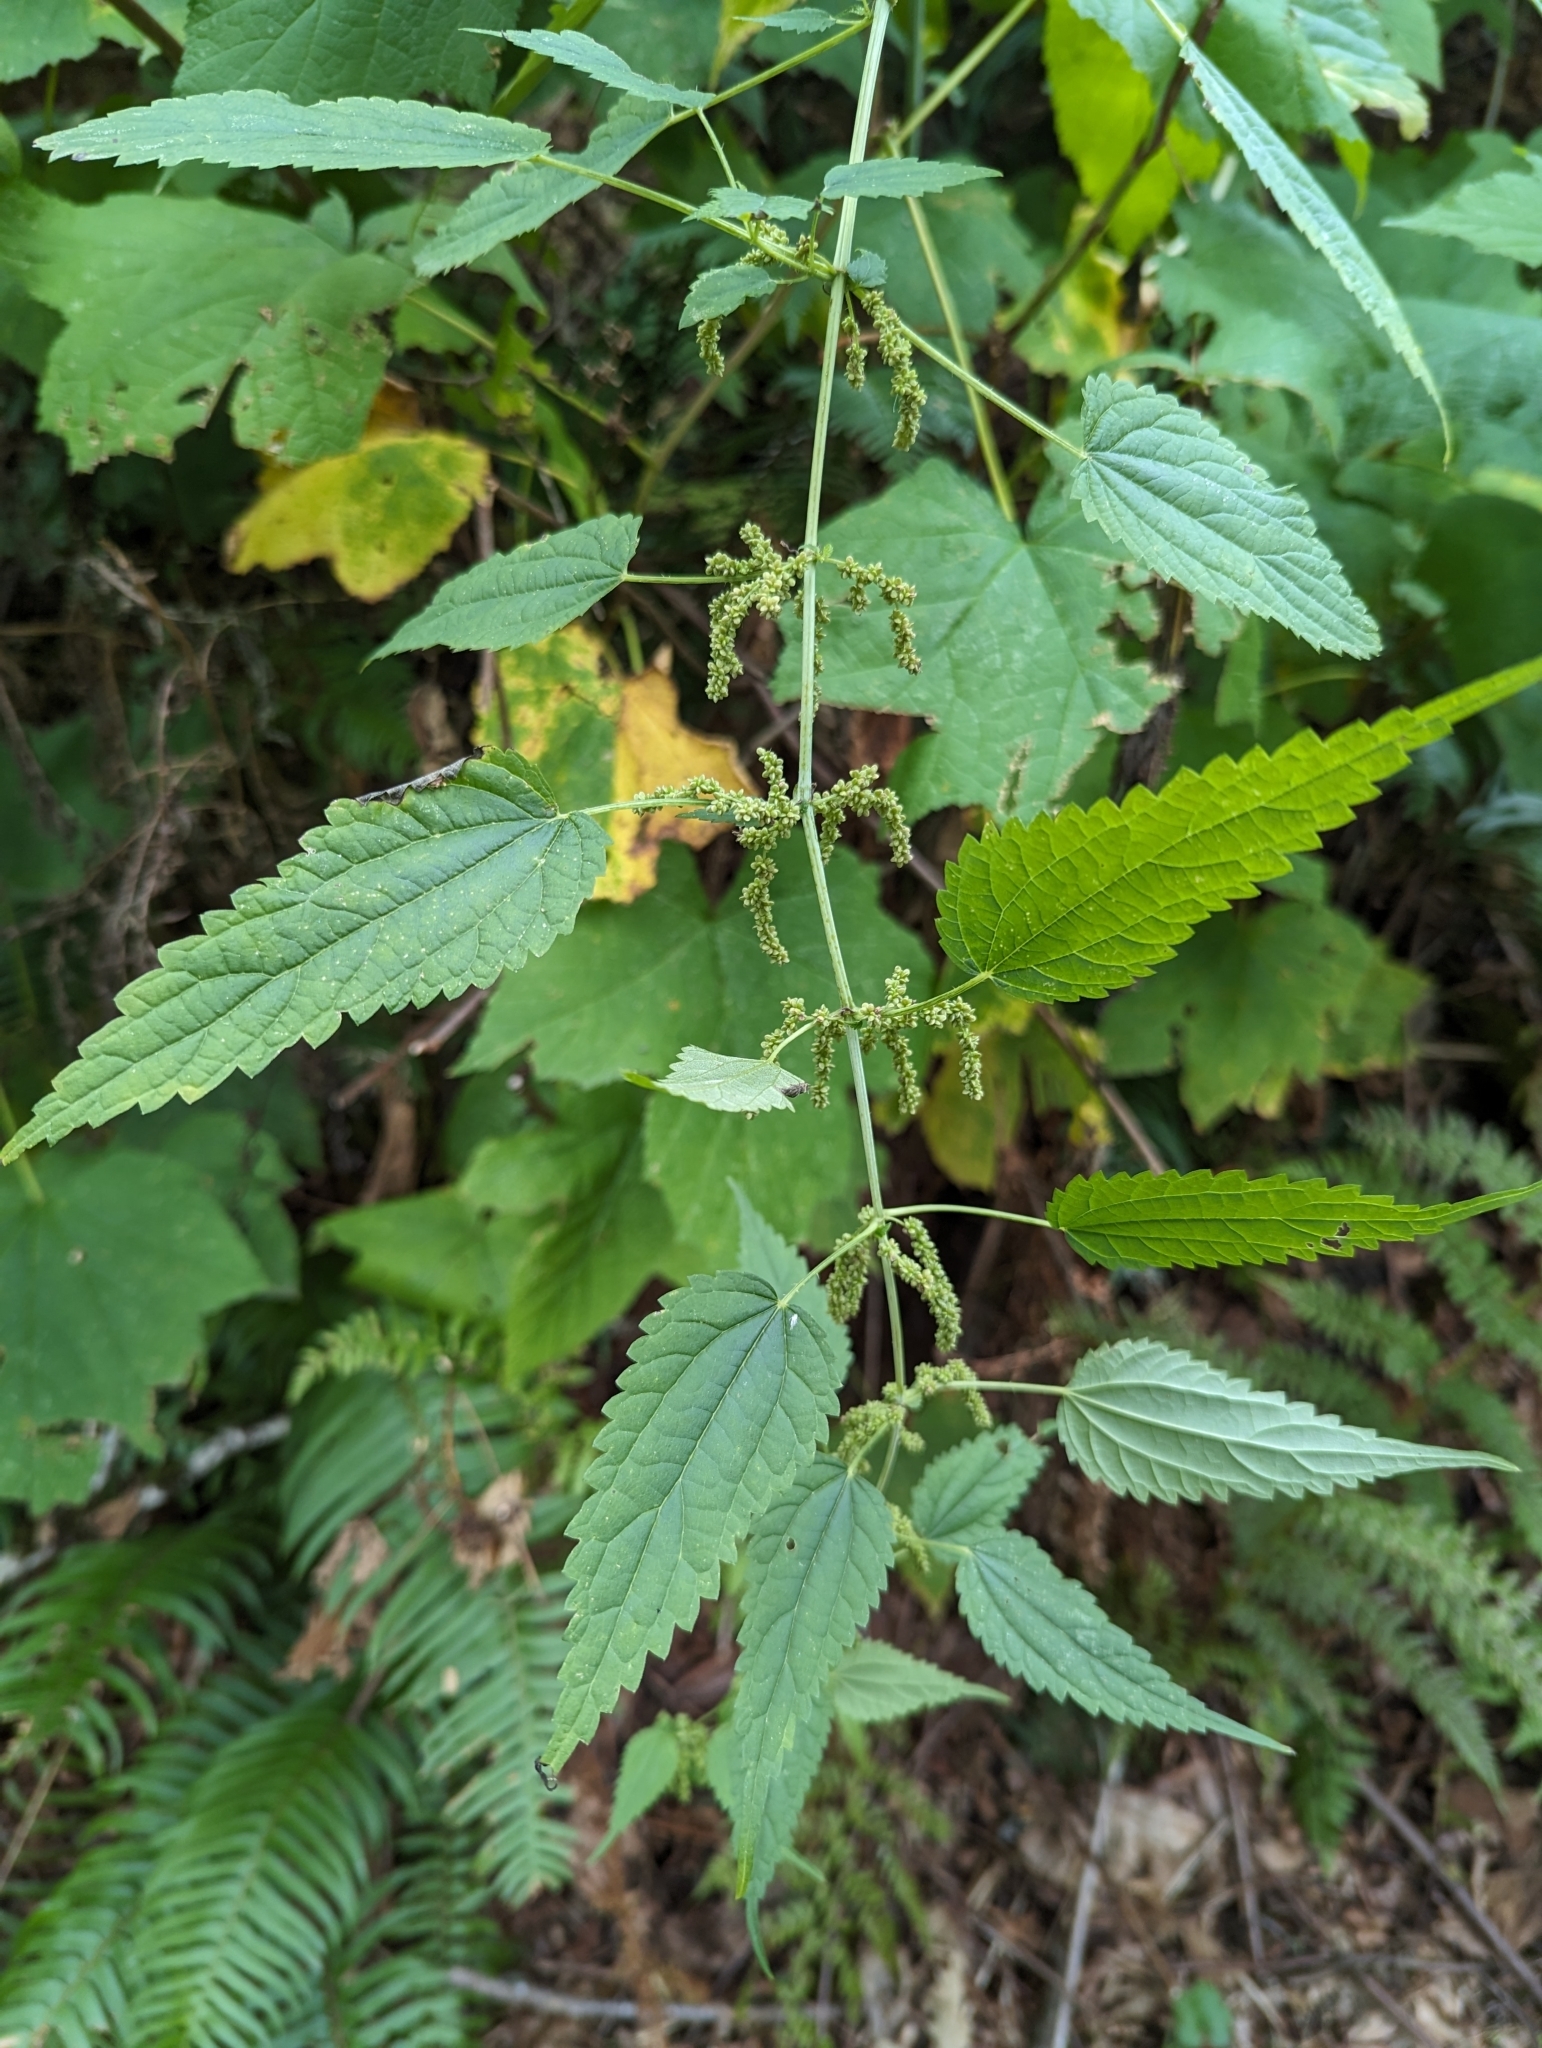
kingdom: Plantae
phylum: Tracheophyta
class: Magnoliopsida
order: Rosales
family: Urticaceae
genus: Urtica
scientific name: Urtica gracilis
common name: Slender stinging nettle
